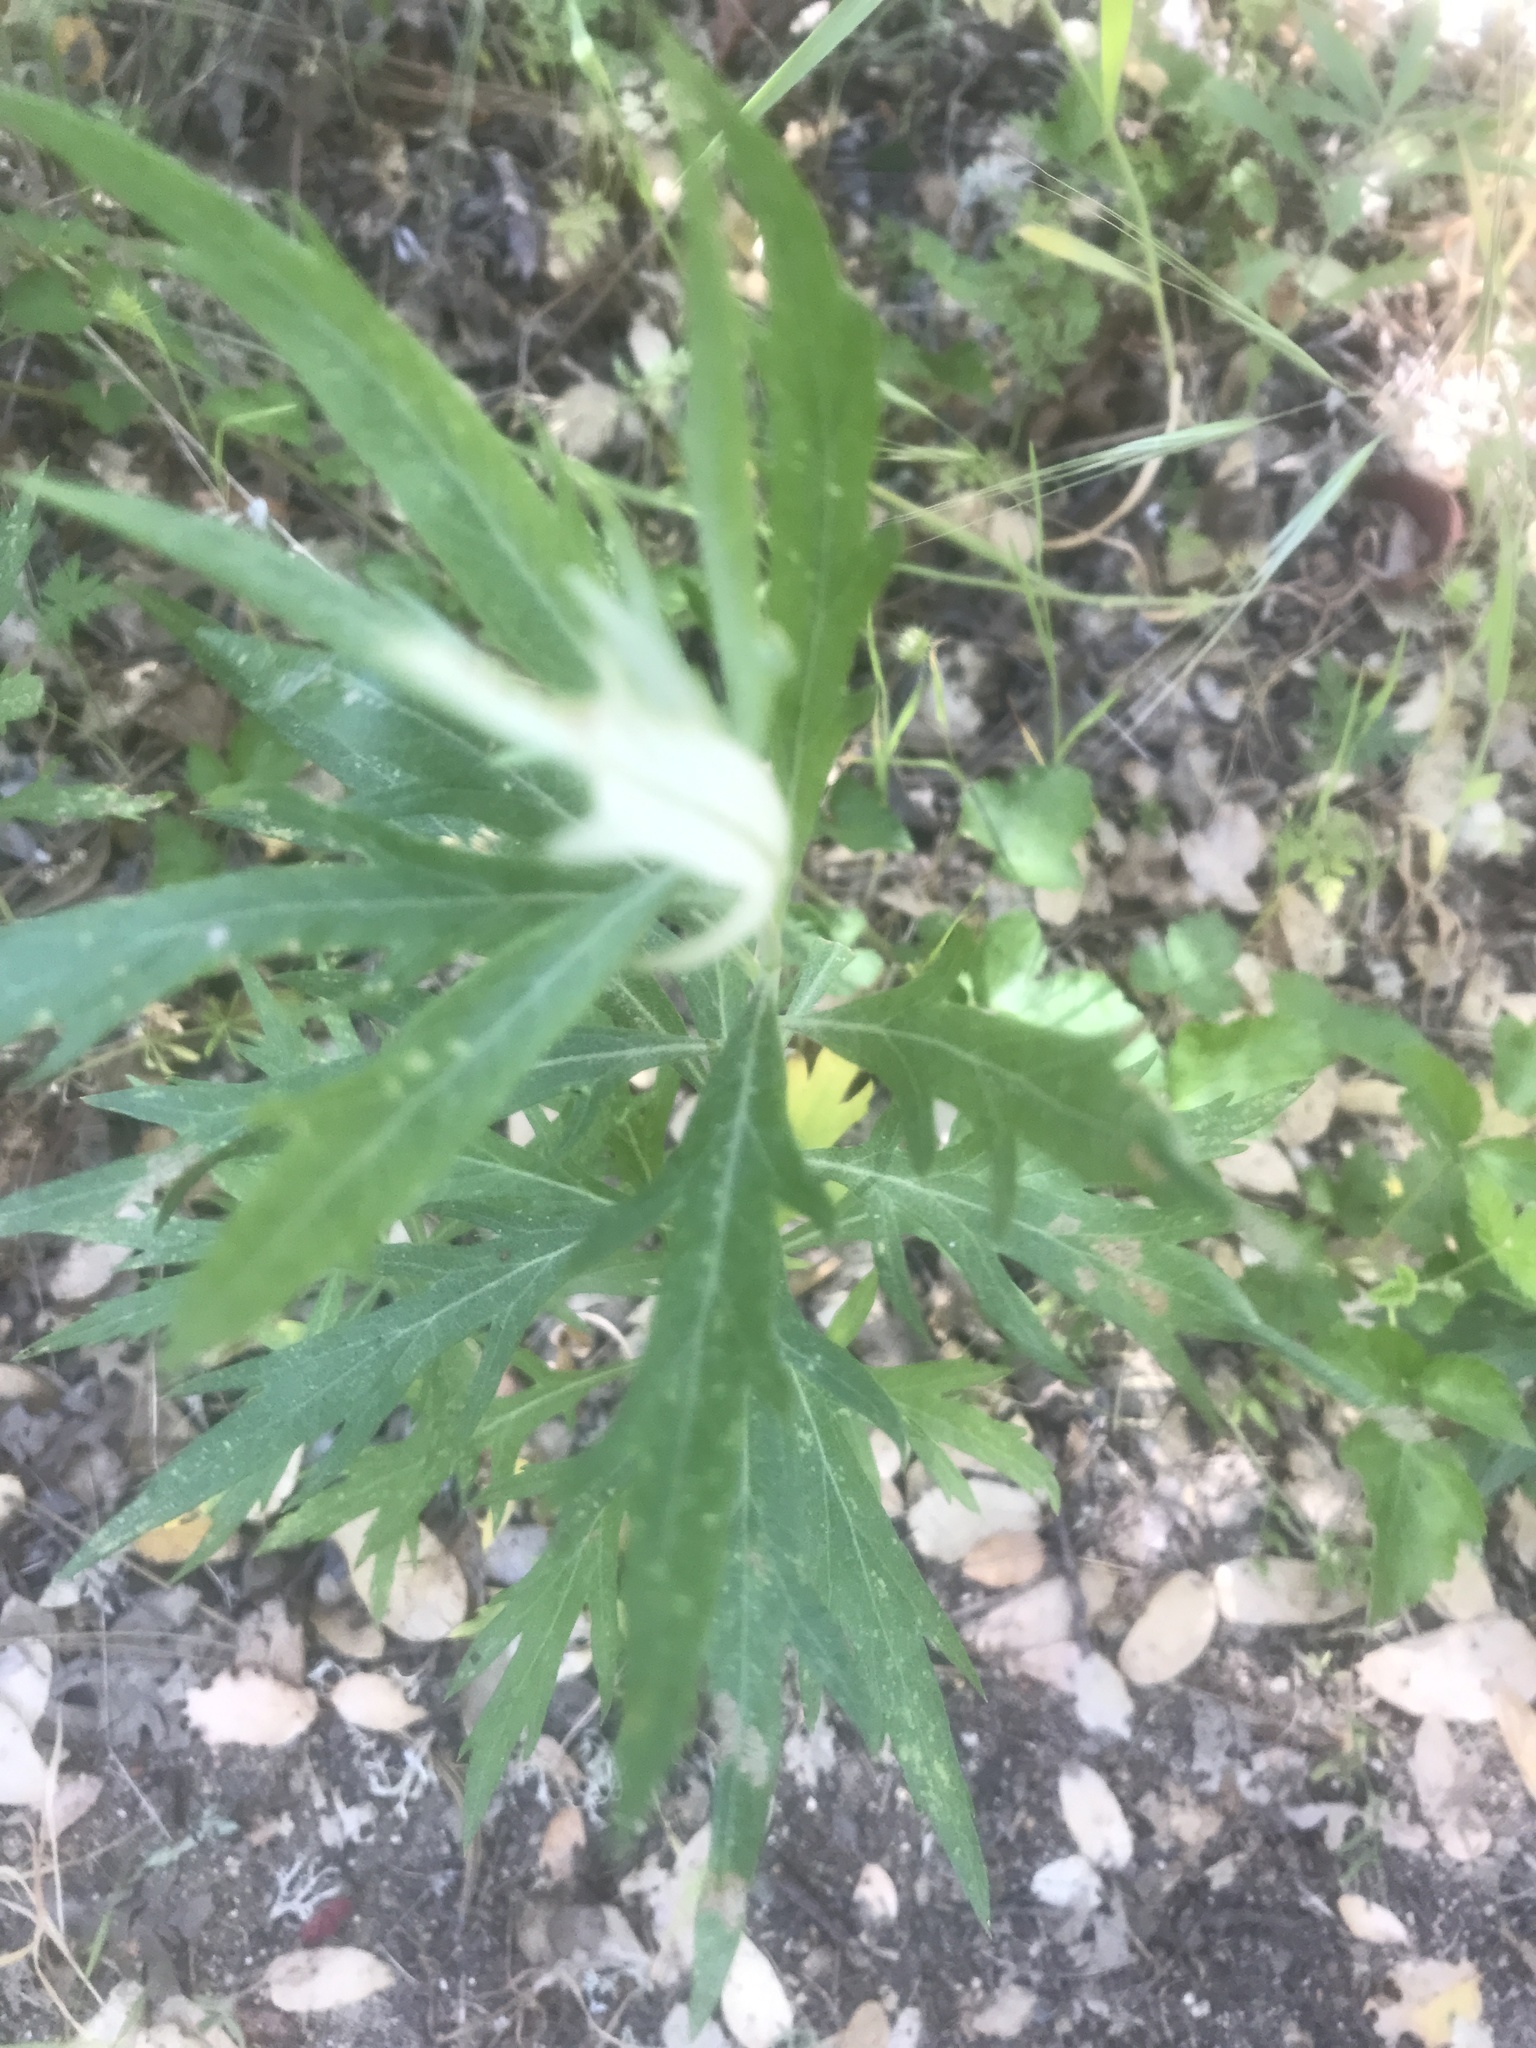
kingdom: Plantae
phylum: Tracheophyta
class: Magnoliopsida
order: Asterales
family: Asteraceae
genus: Artemisia
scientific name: Artemisia douglasiana
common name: Northwest mugwort
